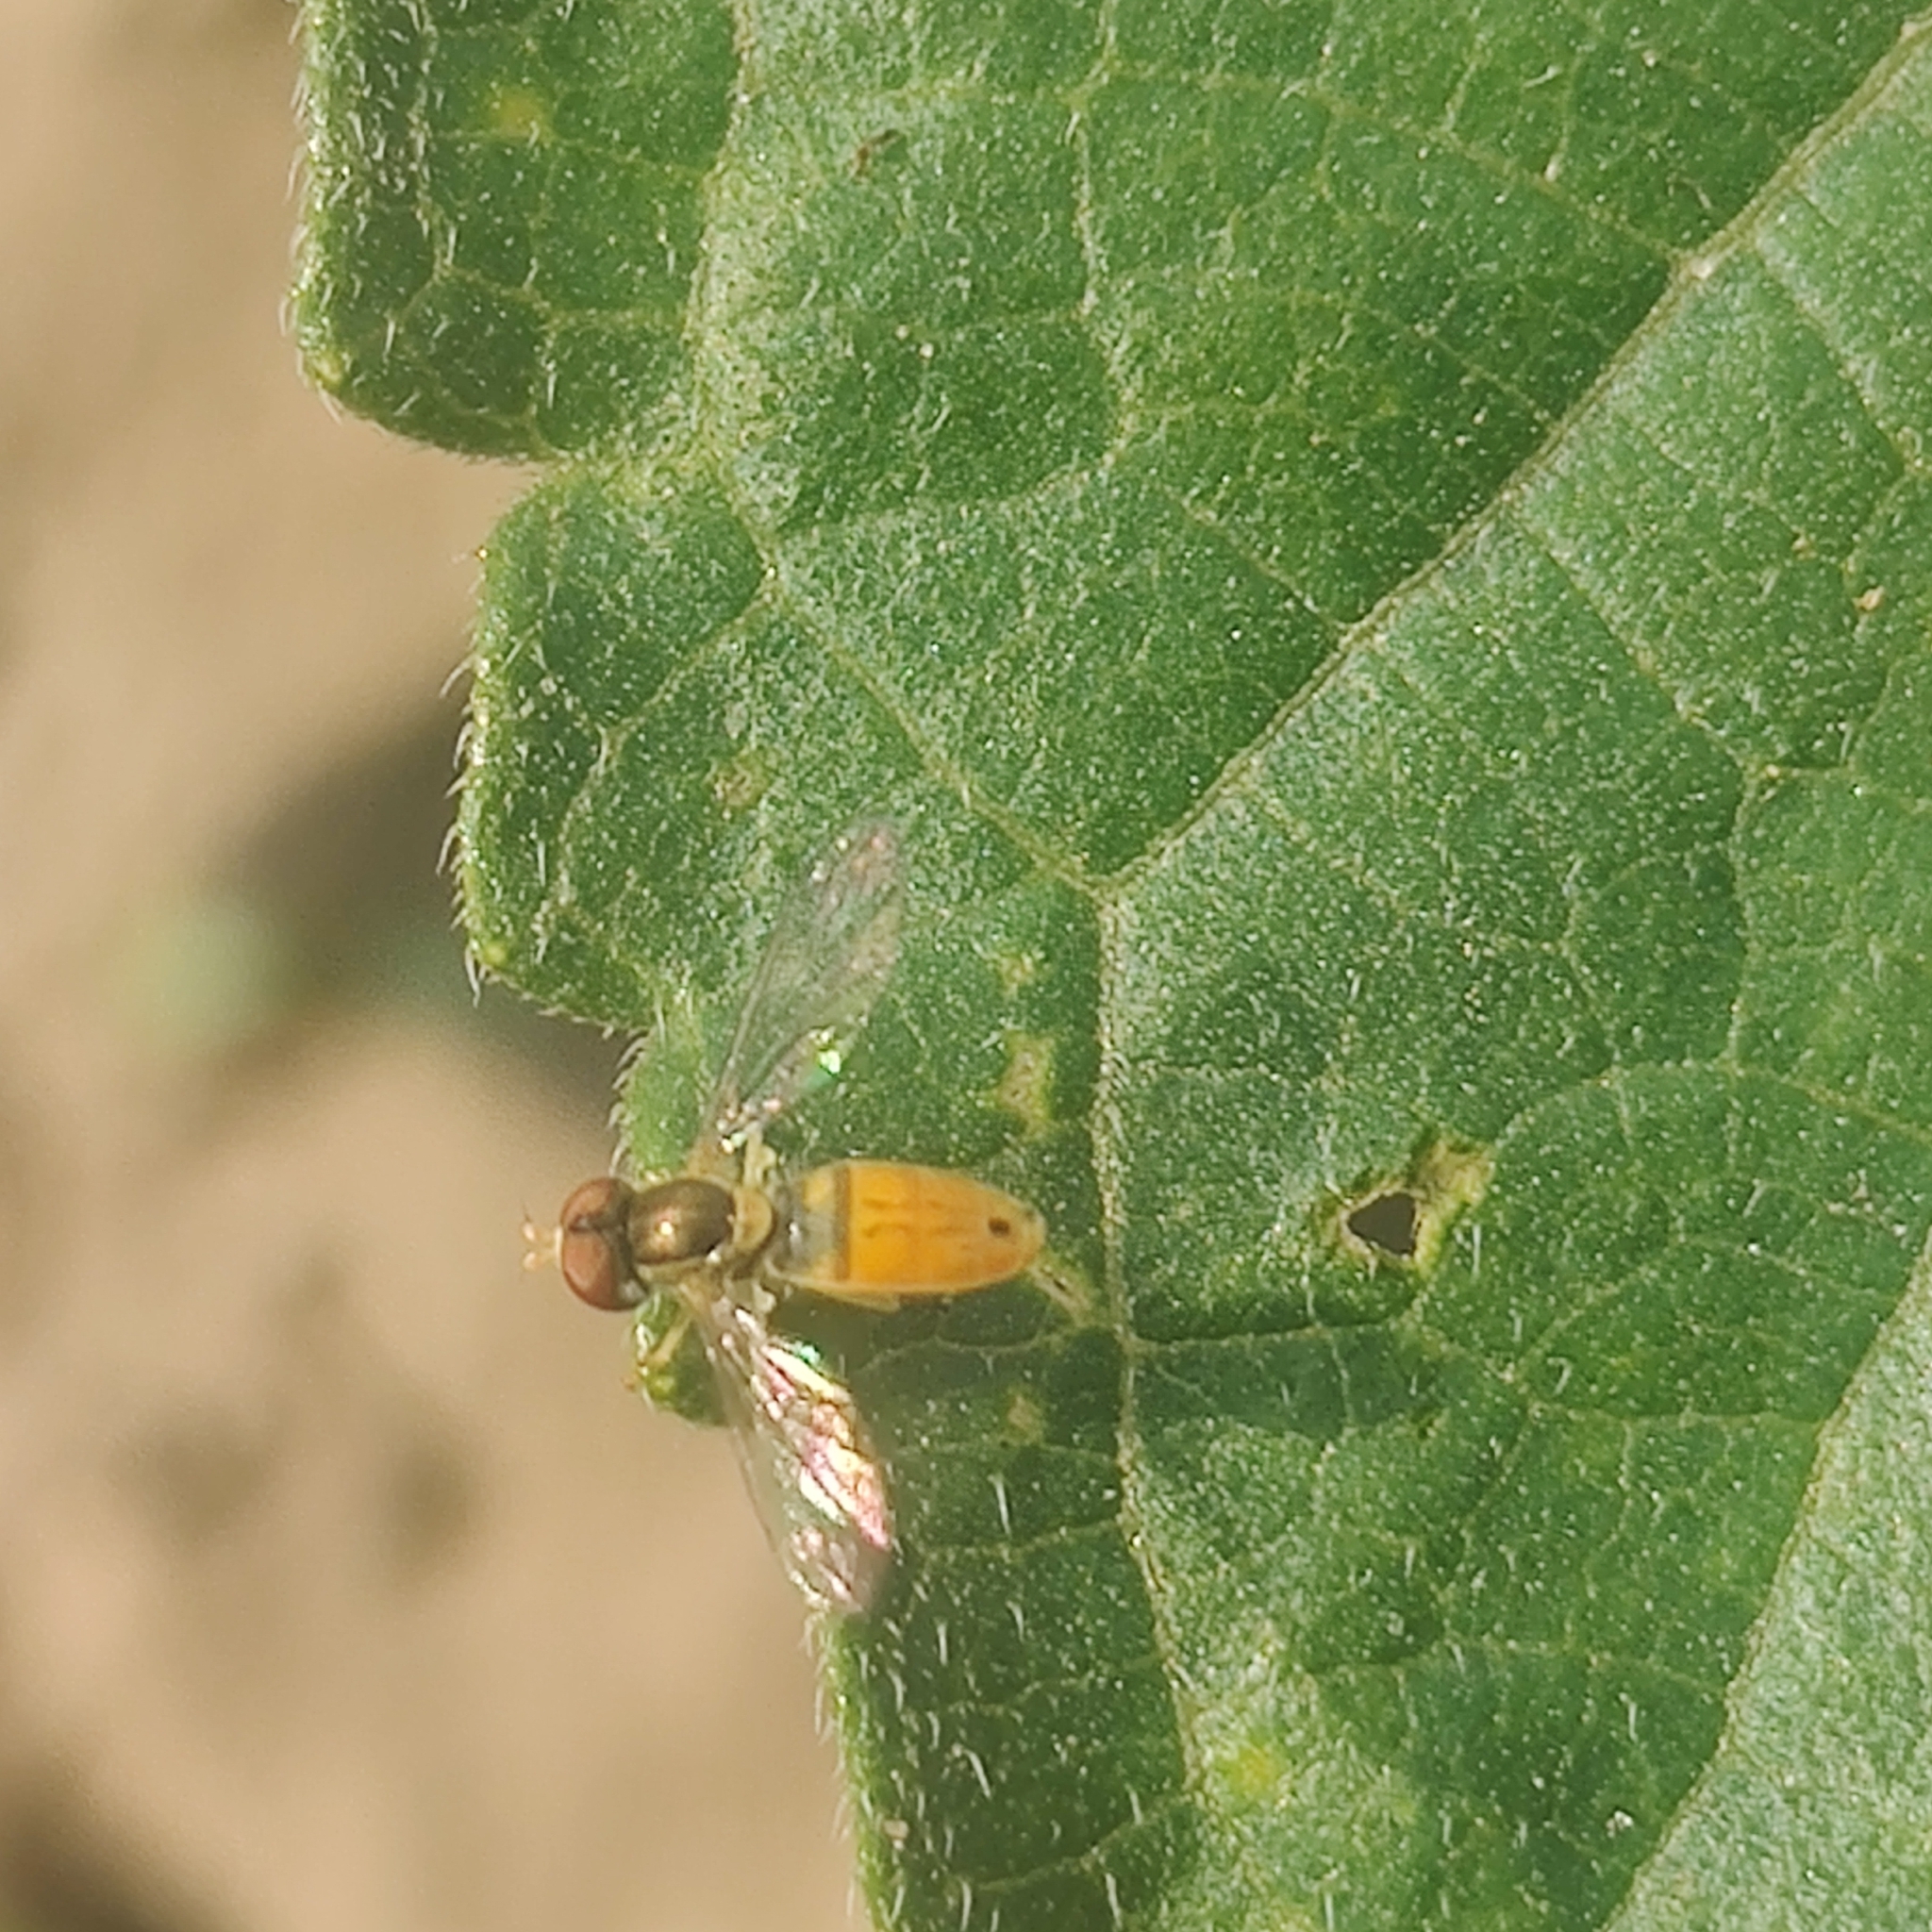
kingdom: Animalia
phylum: Arthropoda
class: Insecta
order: Diptera
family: Syrphidae
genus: Toxomerus
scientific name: Toxomerus marginatus
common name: Syrphid fly
